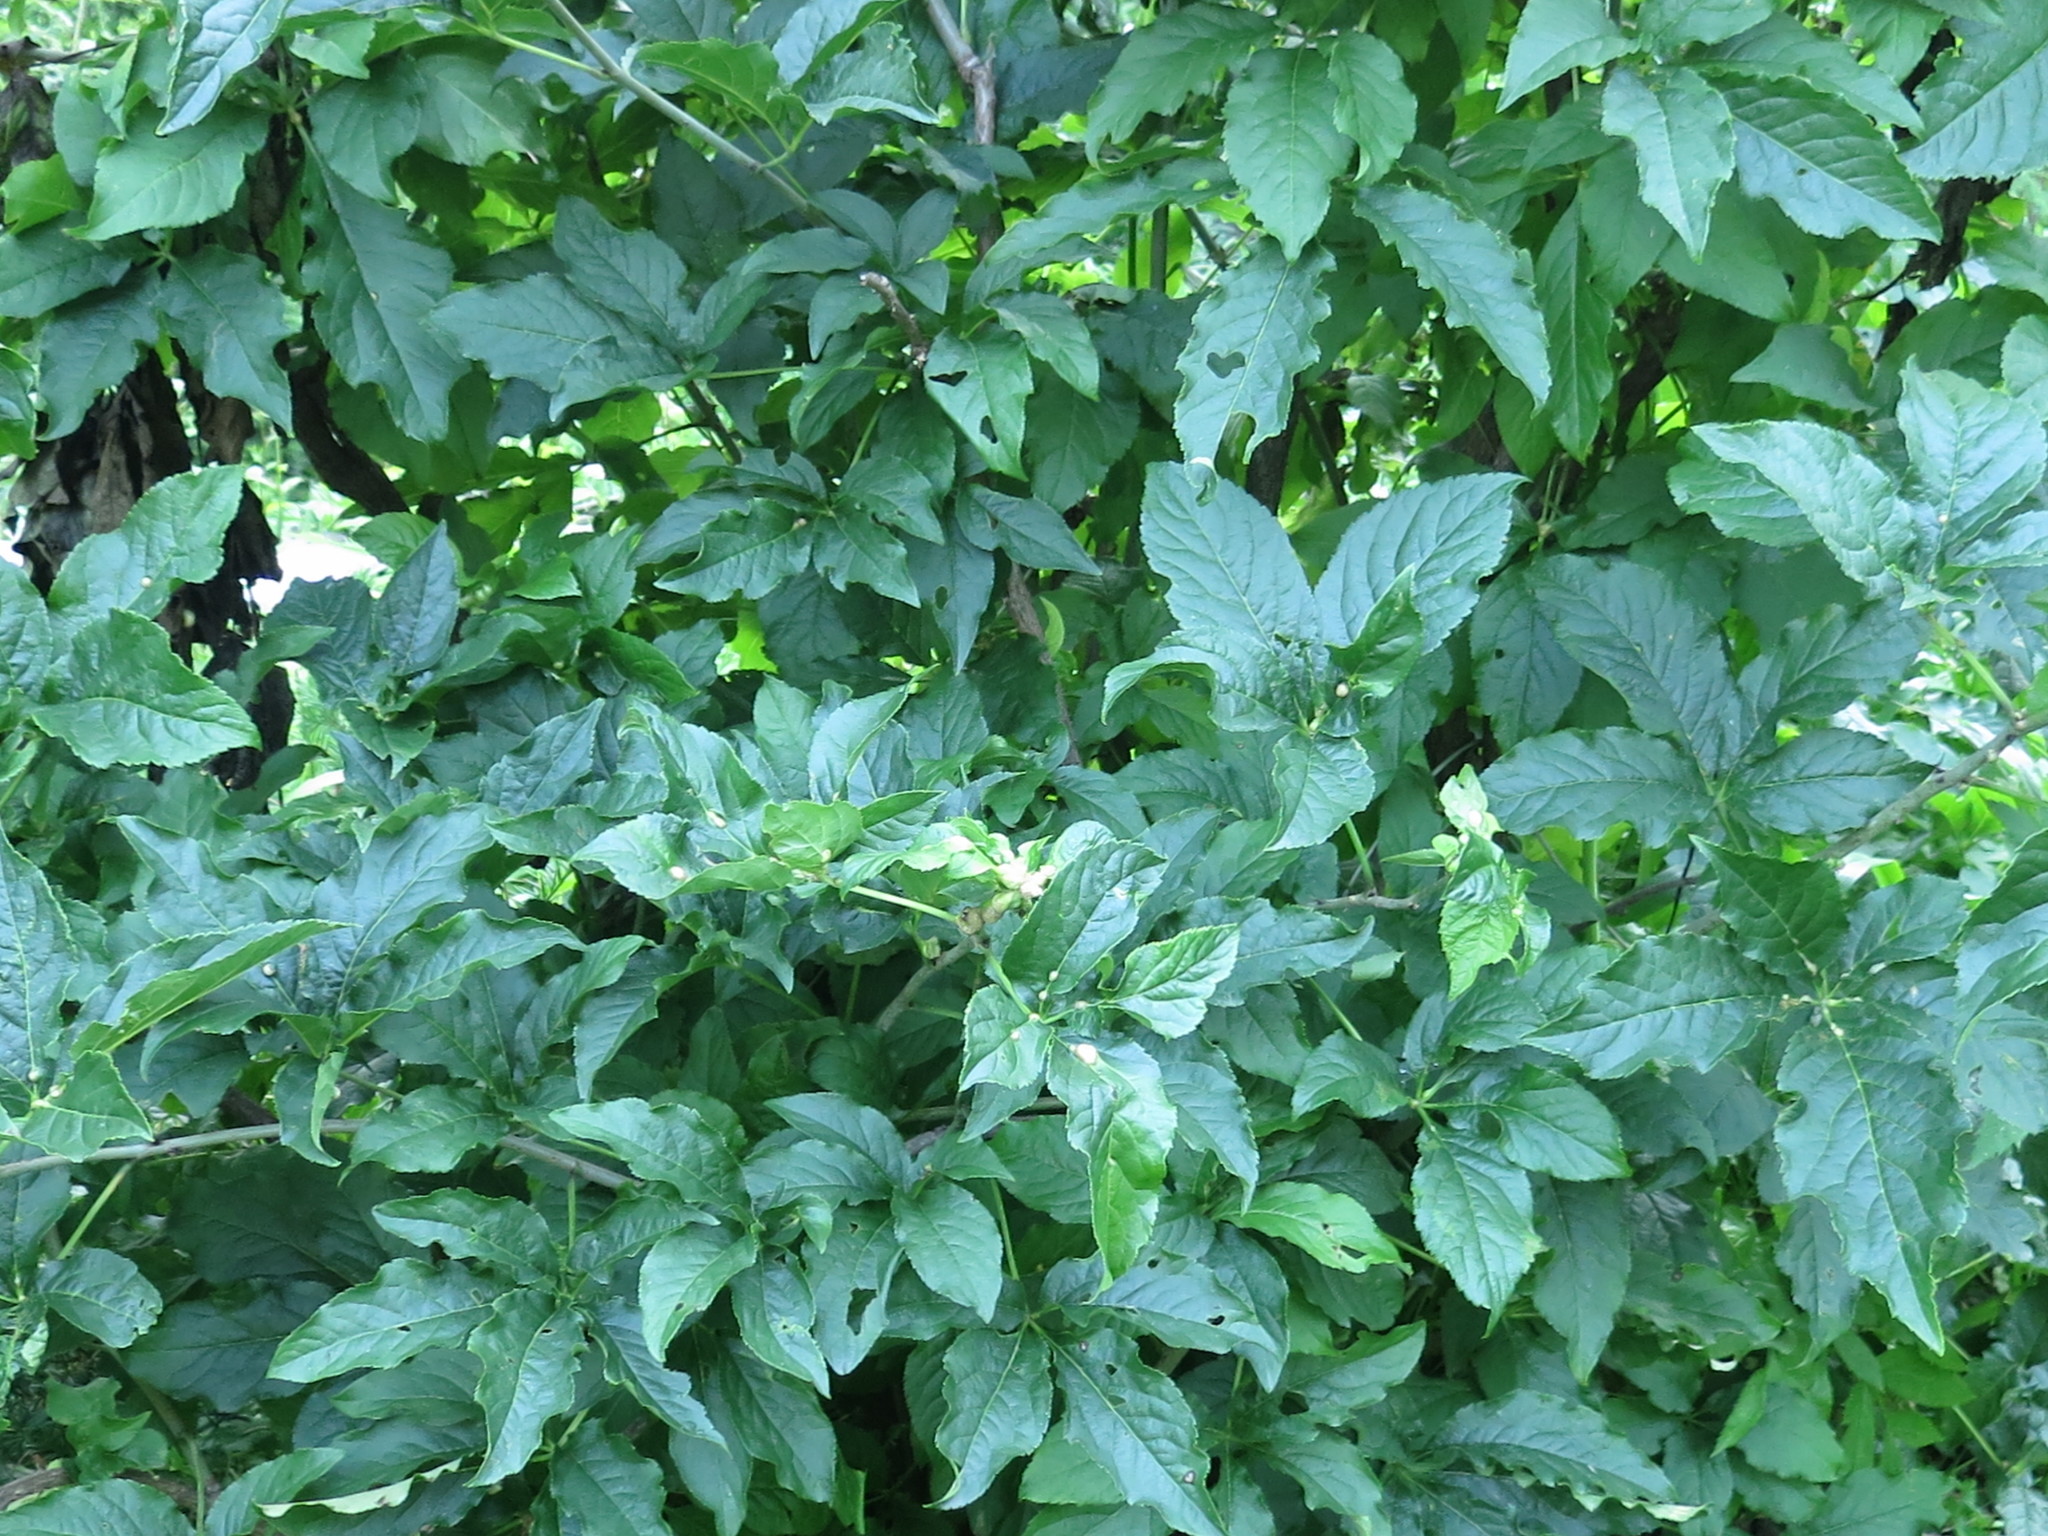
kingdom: Plantae
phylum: Tracheophyta
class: Magnoliopsida
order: Apiales
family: Araliaceae
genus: Eleutherococcus
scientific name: Eleutherococcus sessiliflorus
